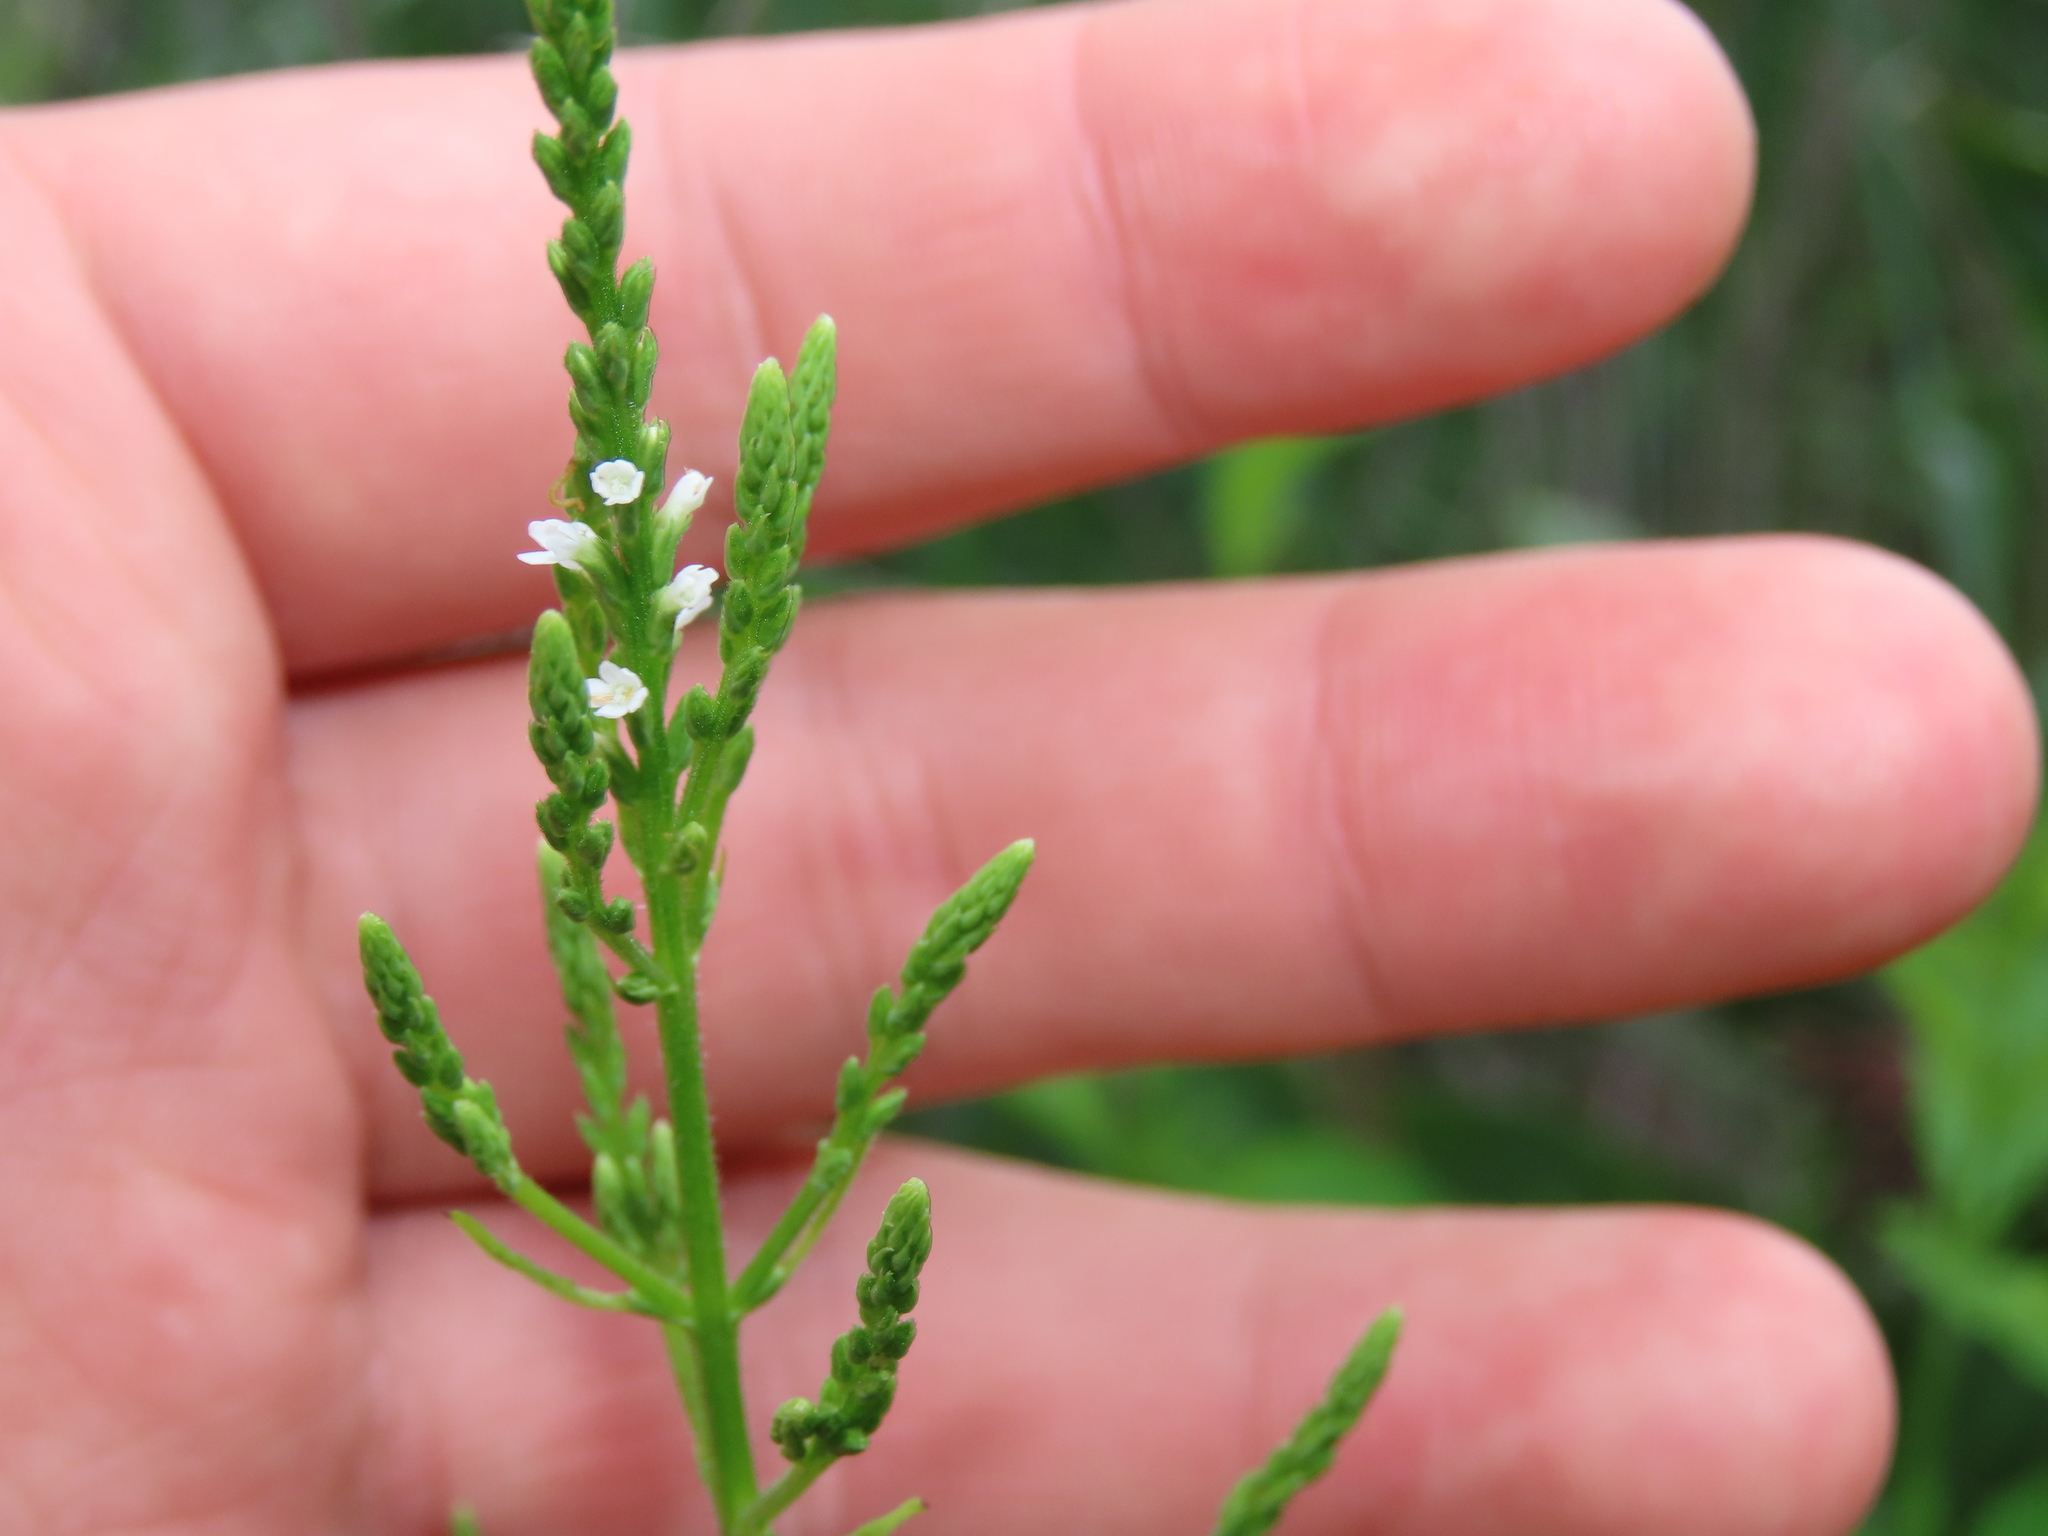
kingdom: Plantae
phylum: Tracheophyta
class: Magnoliopsida
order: Lamiales
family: Verbenaceae
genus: Verbena
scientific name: Verbena urticifolia
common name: Nettle-leaved vervain
